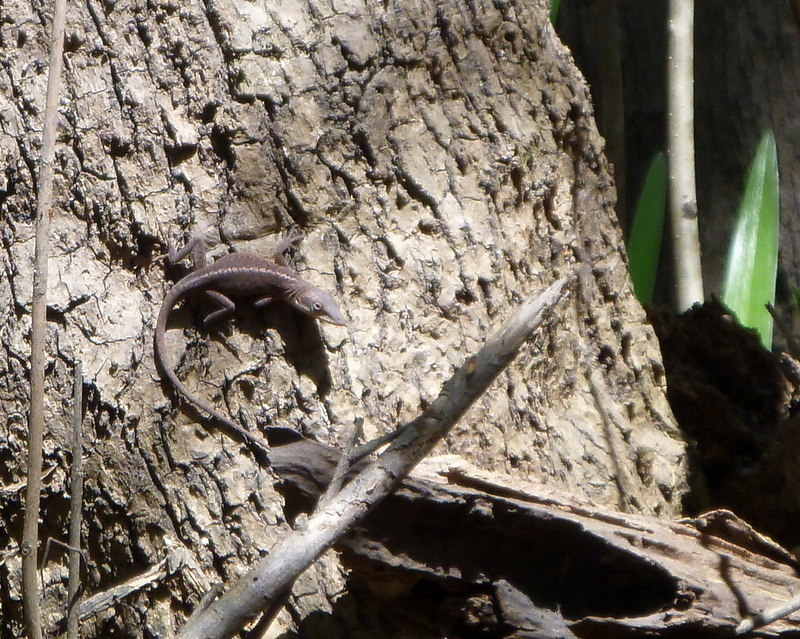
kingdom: Animalia
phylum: Chordata
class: Squamata
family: Dactyloidae
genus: Anolis
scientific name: Anolis carolinensis
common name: Green anole
